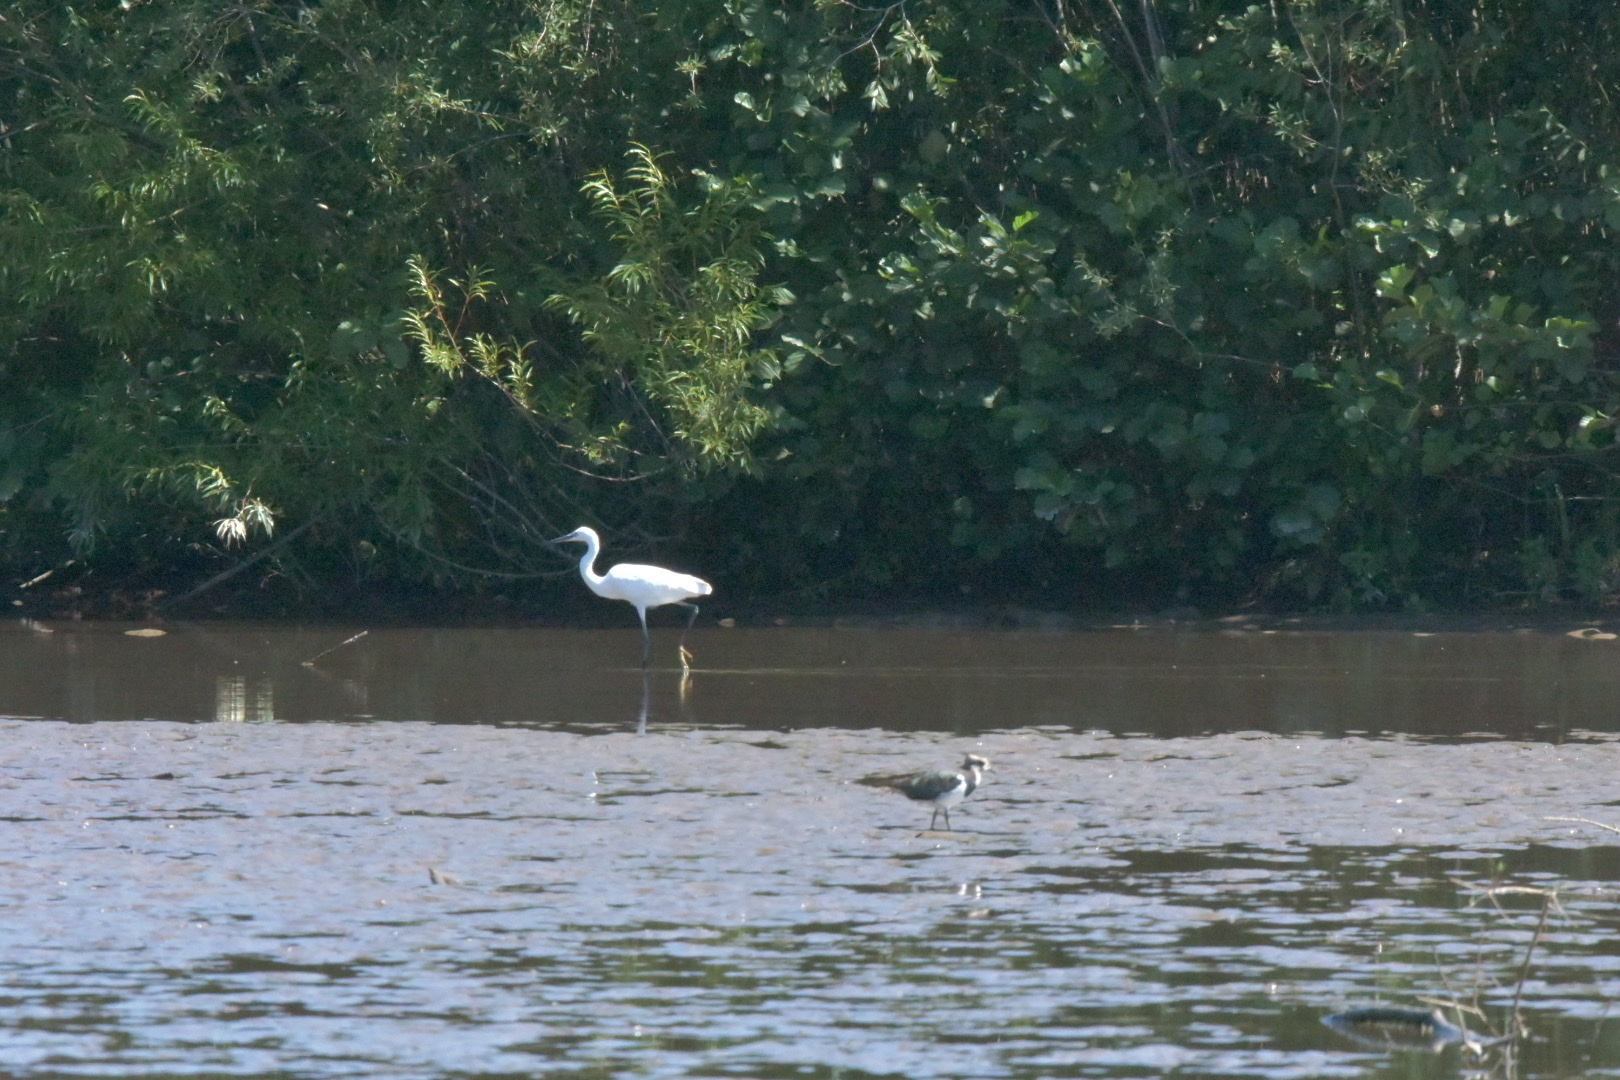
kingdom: Animalia
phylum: Chordata
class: Aves
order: Pelecaniformes
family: Ardeidae
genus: Egretta
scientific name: Egretta garzetta
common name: Little egret
